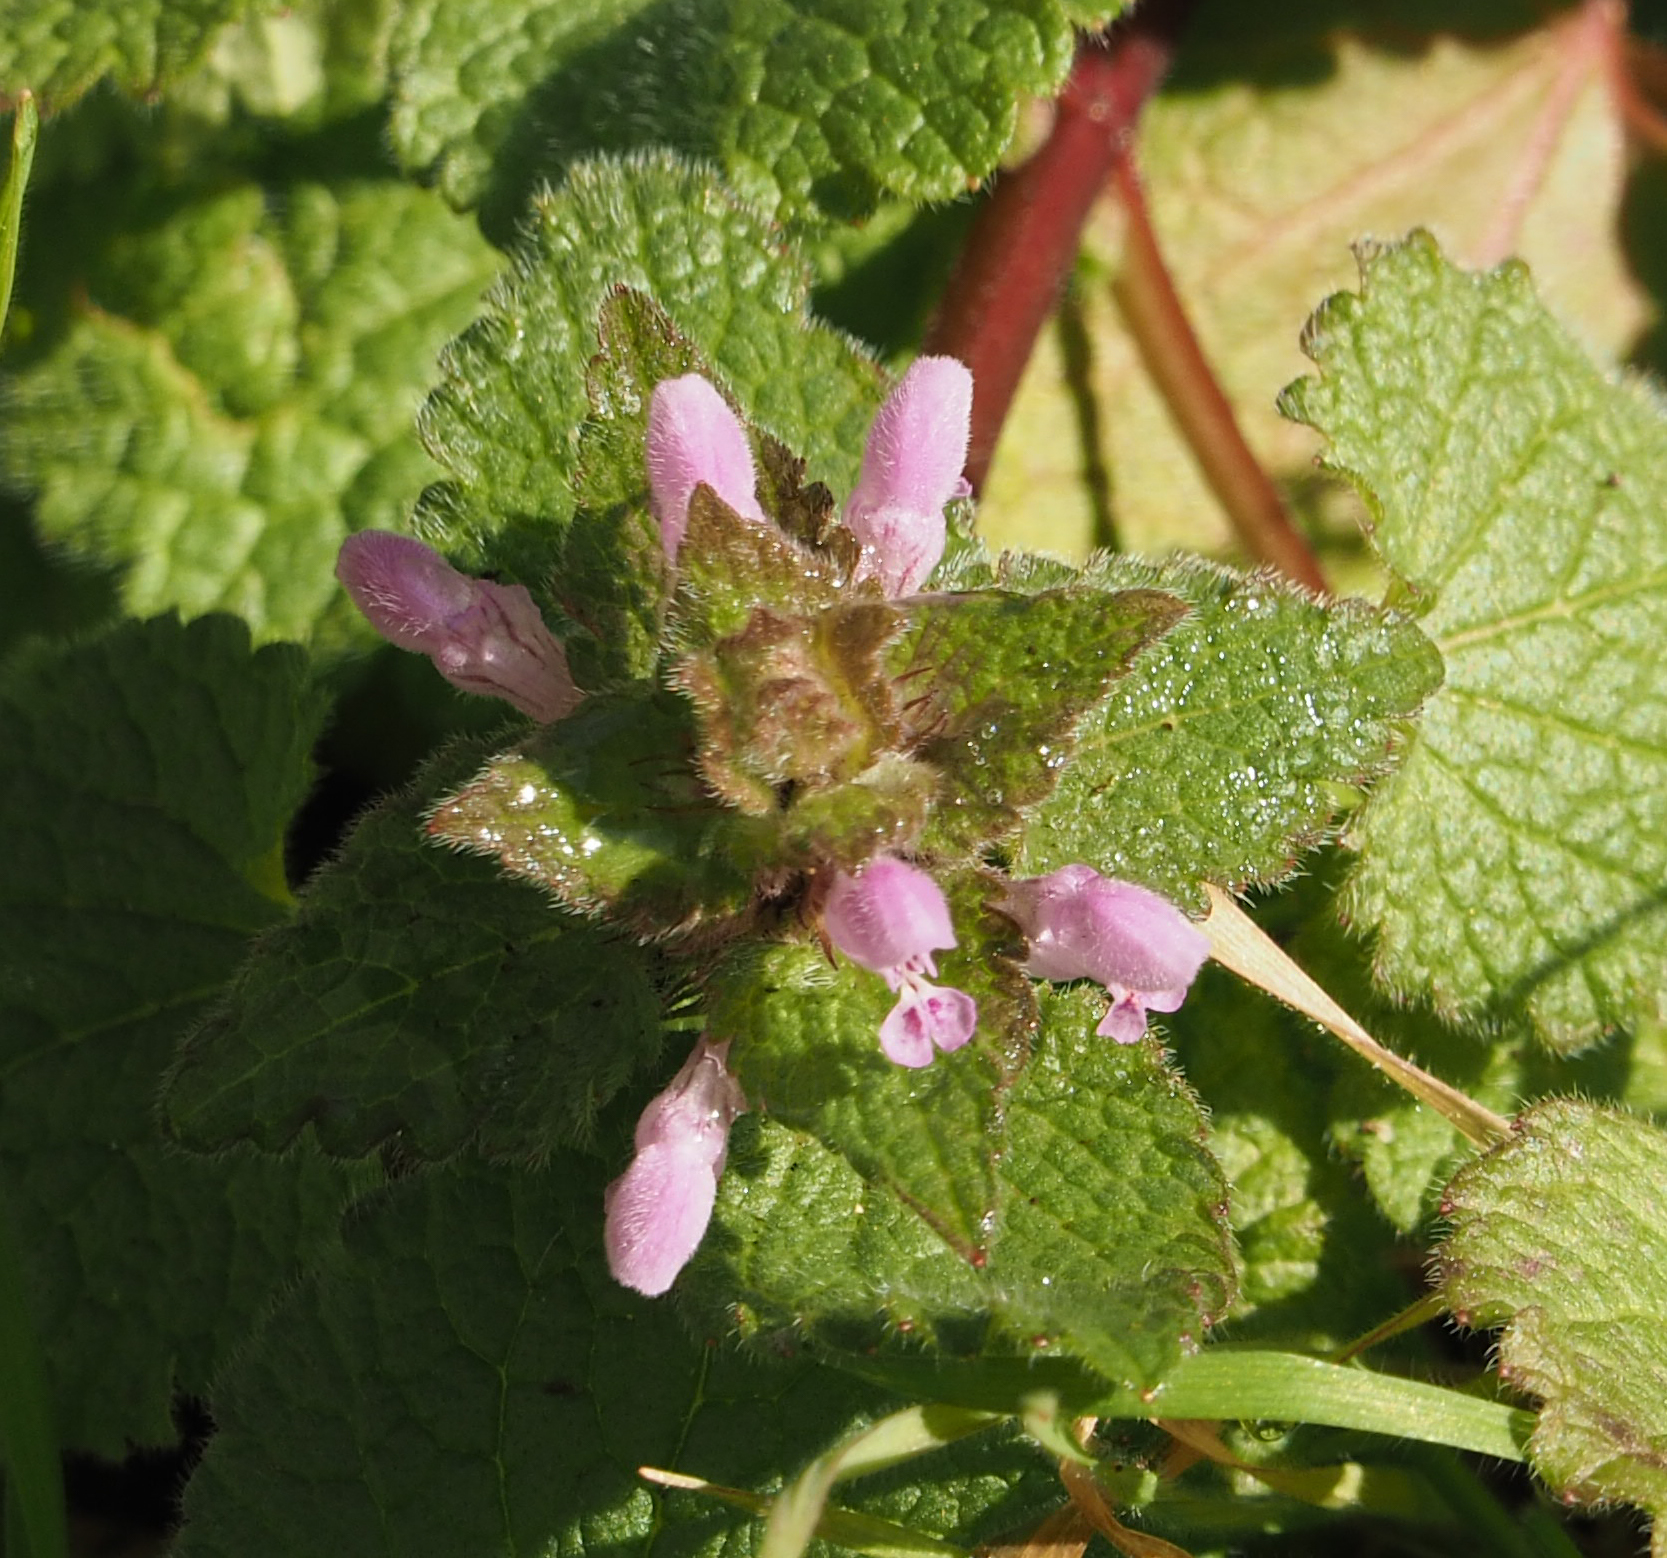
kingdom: Plantae
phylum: Tracheophyta
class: Magnoliopsida
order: Lamiales
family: Lamiaceae
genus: Lamium
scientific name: Lamium purpureum
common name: Red dead-nettle
